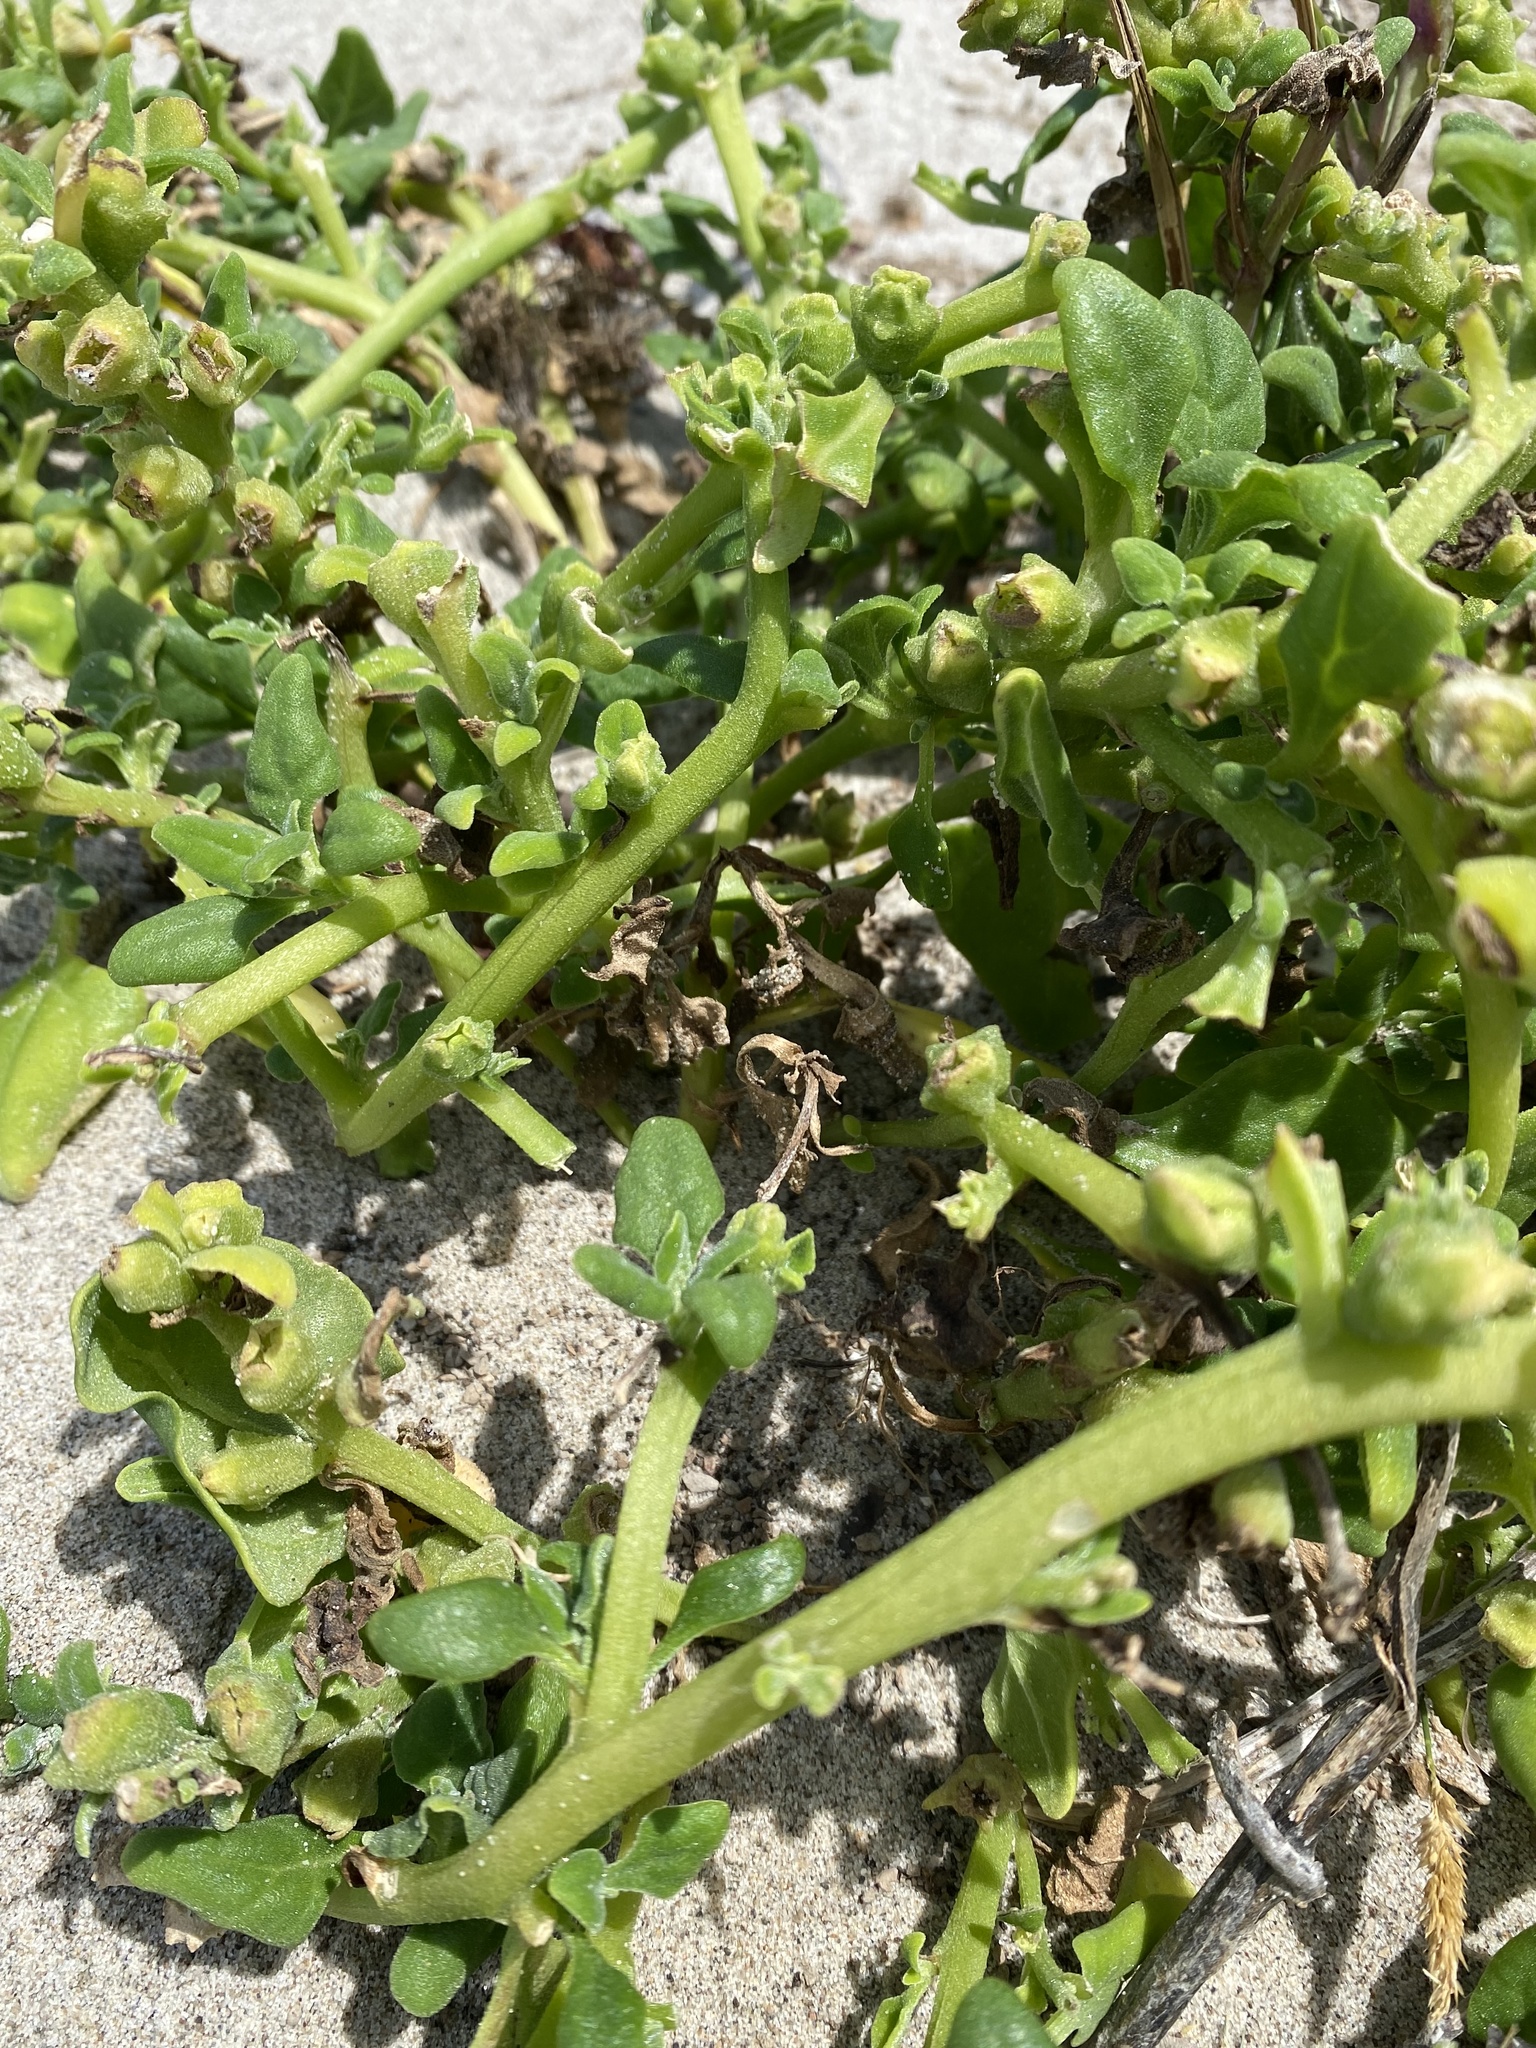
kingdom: Plantae
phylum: Tracheophyta
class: Magnoliopsida
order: Caryophyllales
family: Aizoaceae
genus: Tetragonia
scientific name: Tetragonia tetragonoides
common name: New zealand-spinach
